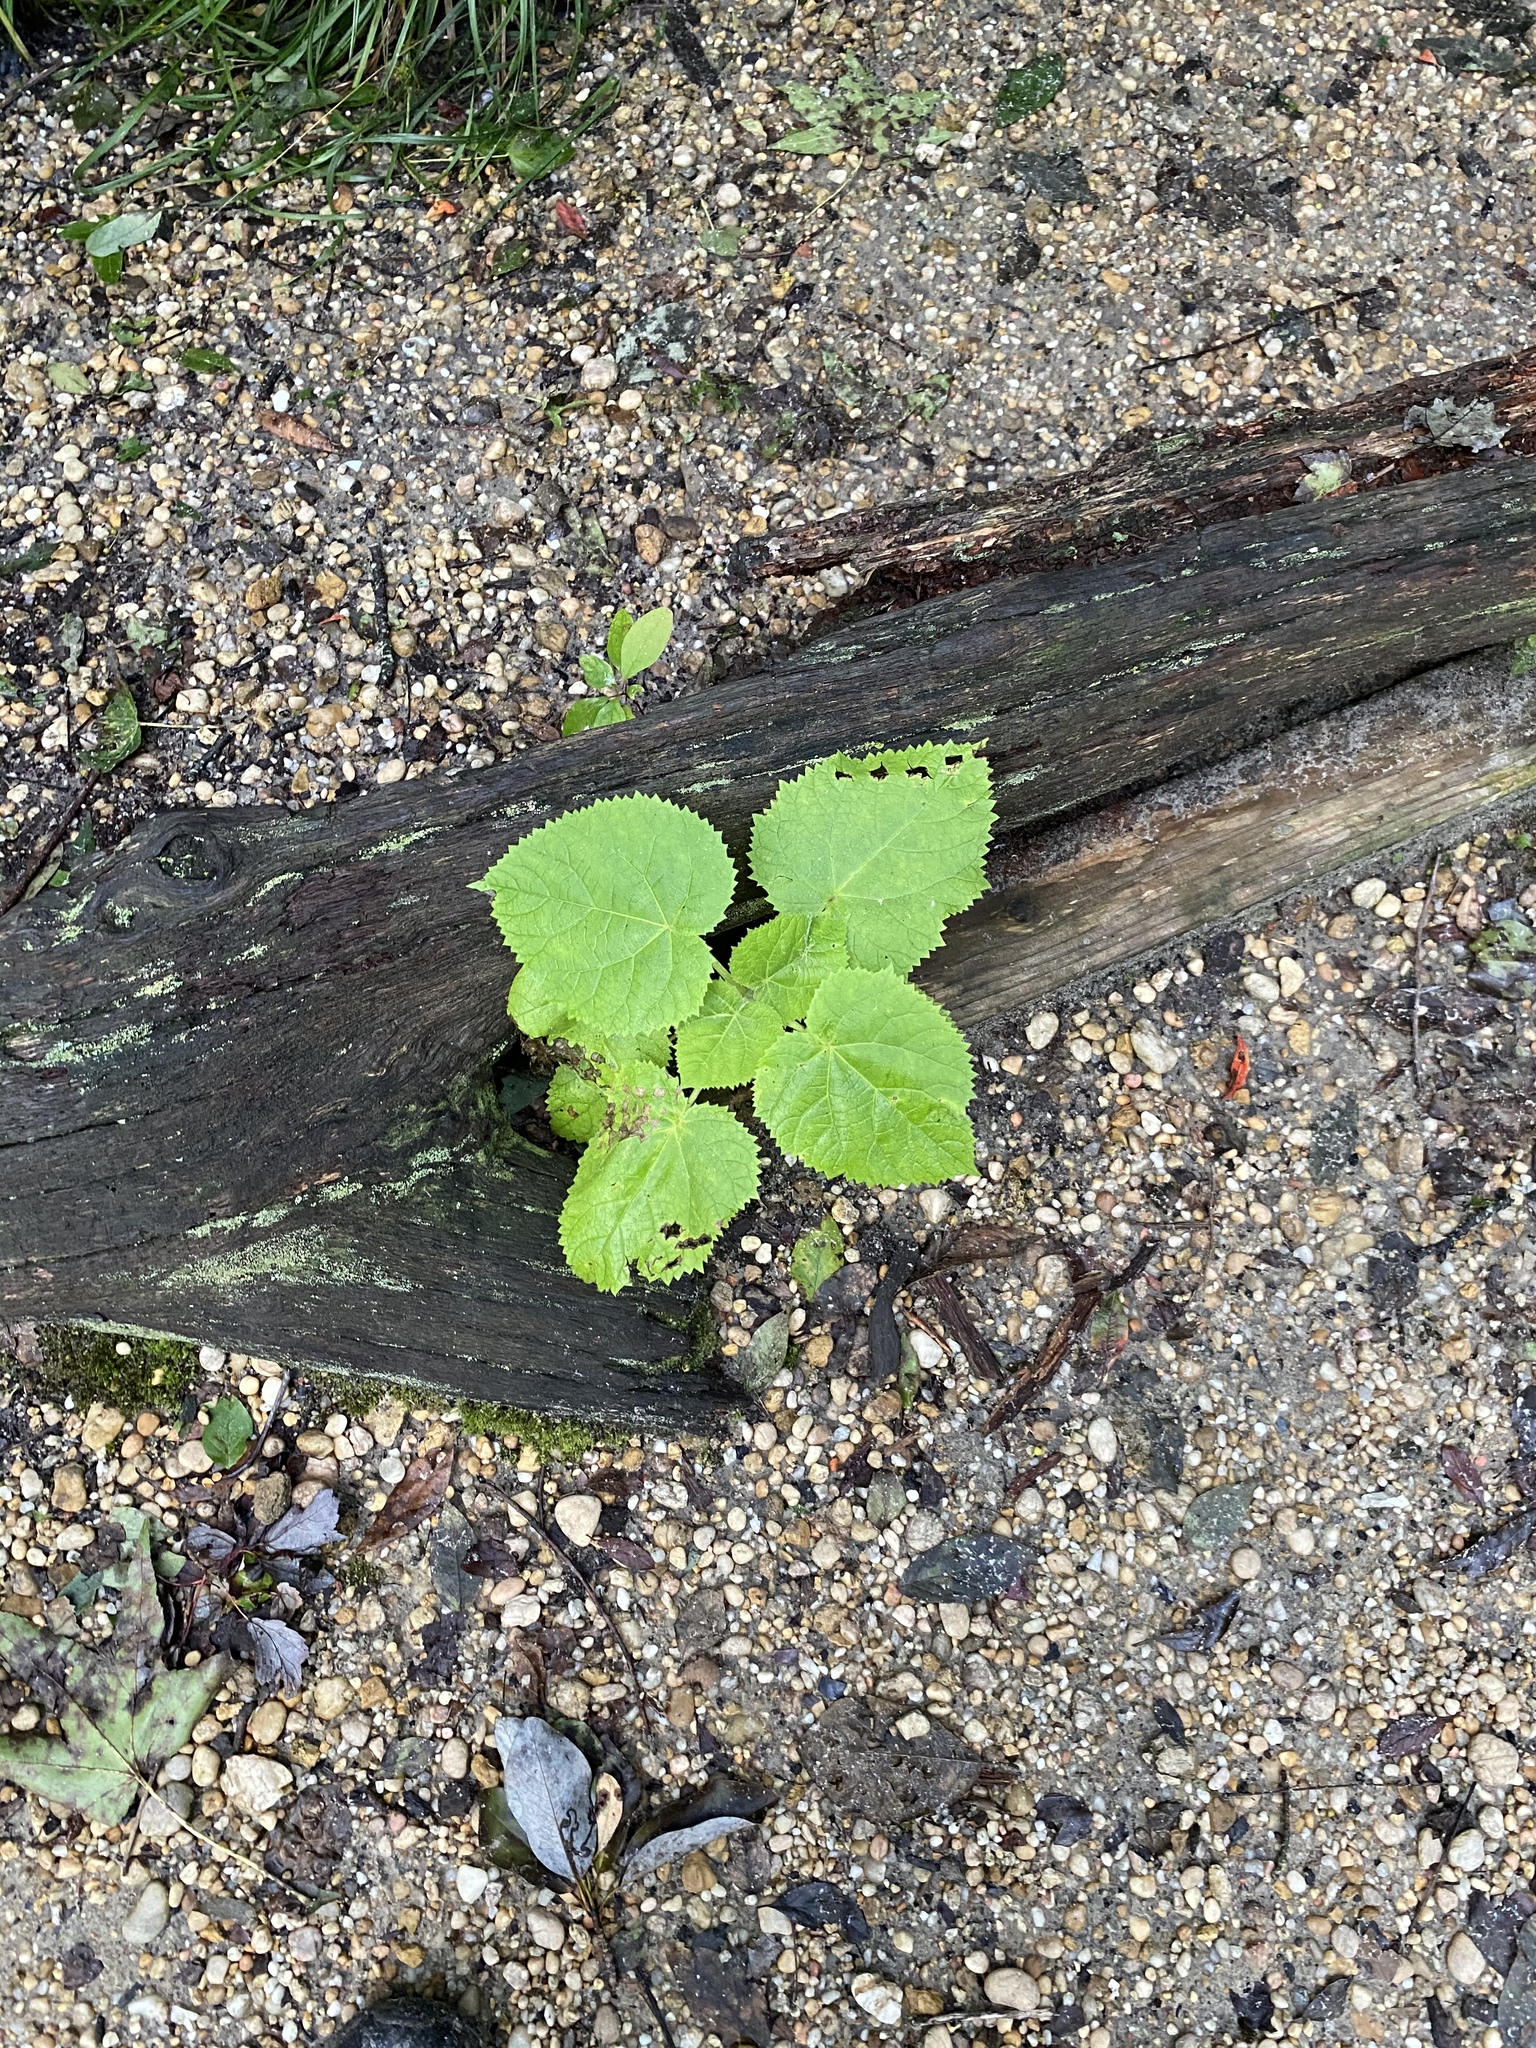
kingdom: Plantae
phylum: Tracheophyta
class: Magnoliopsida
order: Lamiales
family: Paulowniaceae
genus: Paulownia
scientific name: Paulownia tomentosa
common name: Foxglove-tree
